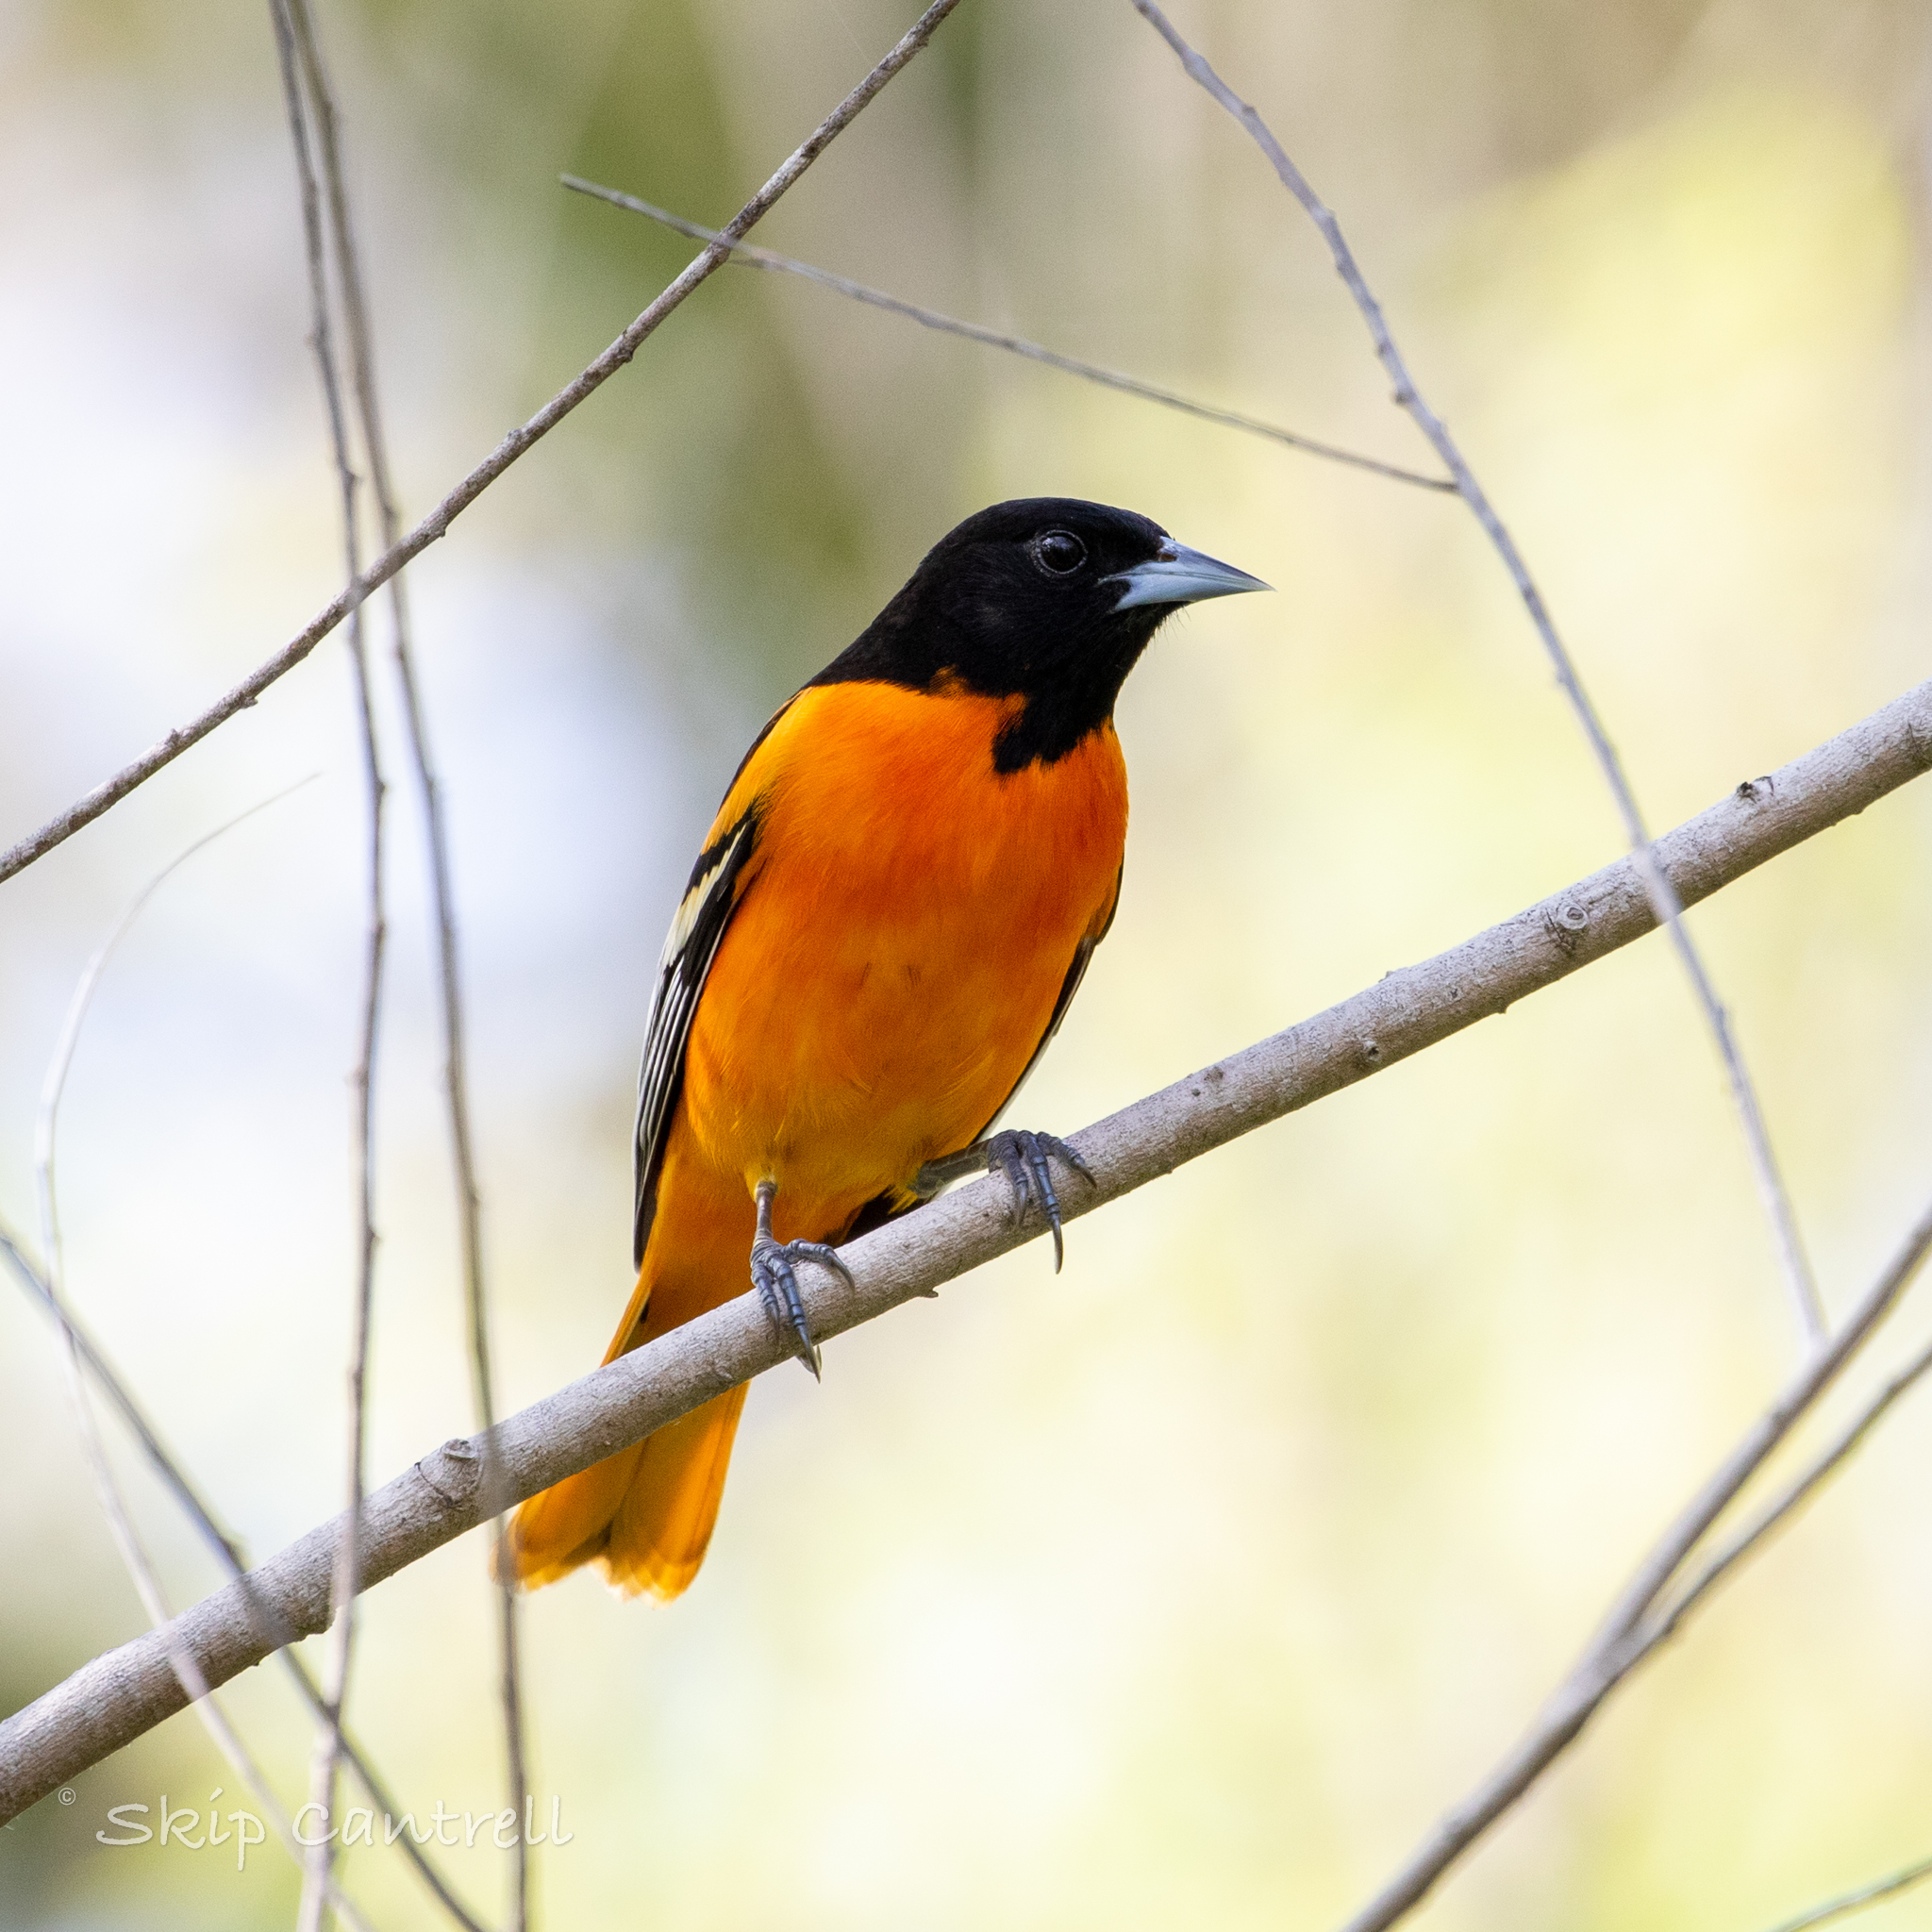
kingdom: Animalia
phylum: Chordata
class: Aves
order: Passeriformes
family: Icteridae
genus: Icterus
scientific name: Icterus galbula
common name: Baltimore oriole
